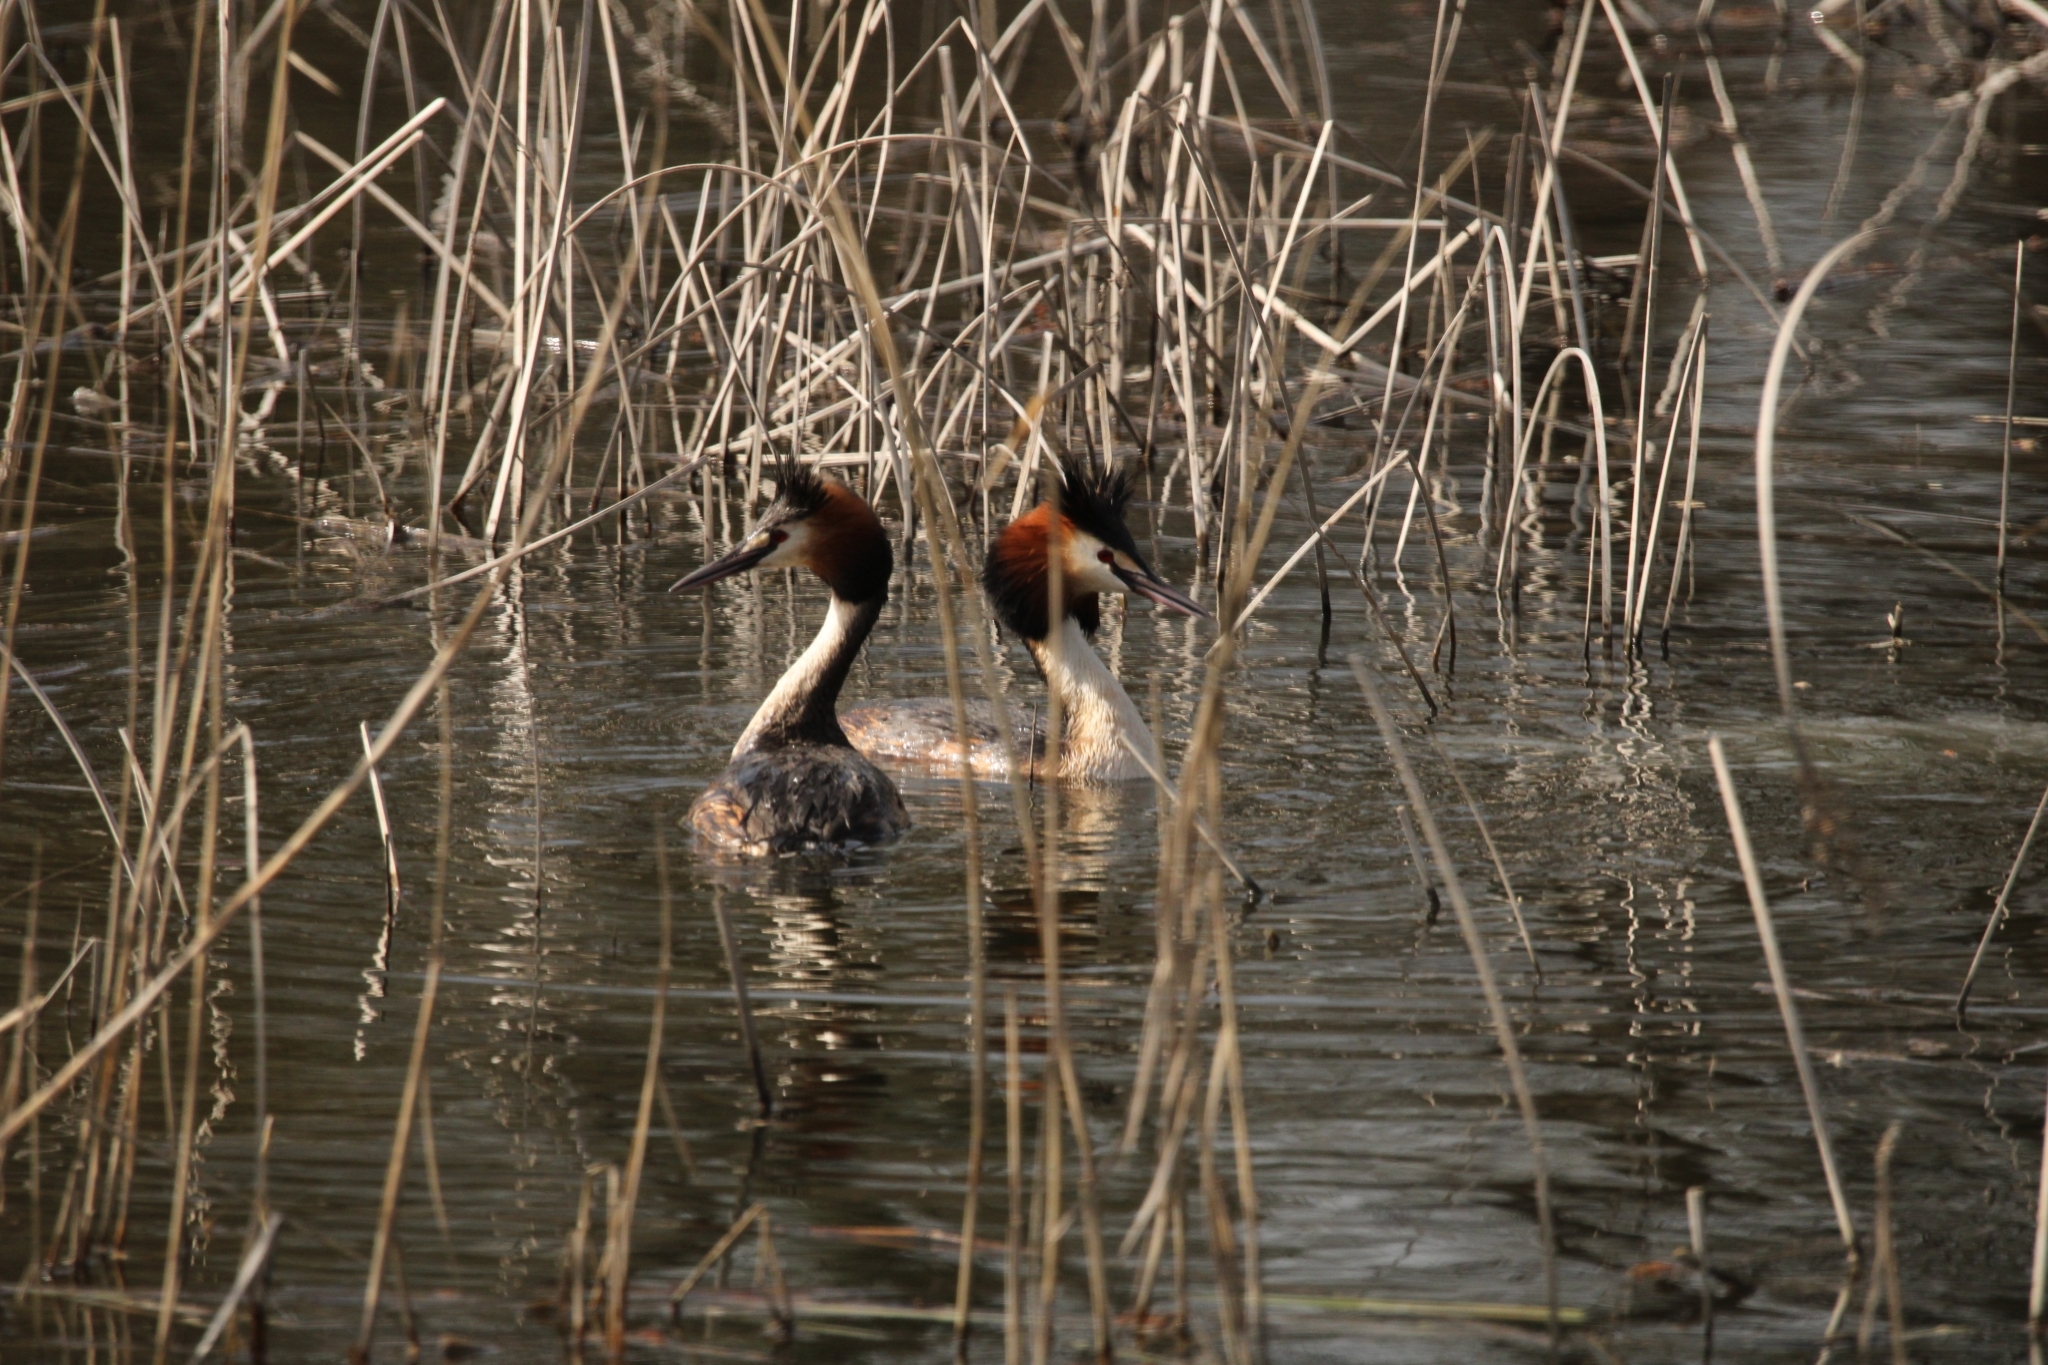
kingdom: Animalia
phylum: Chordata
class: Aves
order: Podicipediformes
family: Podicipedidae
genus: Podiceps
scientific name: Podiceps cristatus
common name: Great crested grebe
